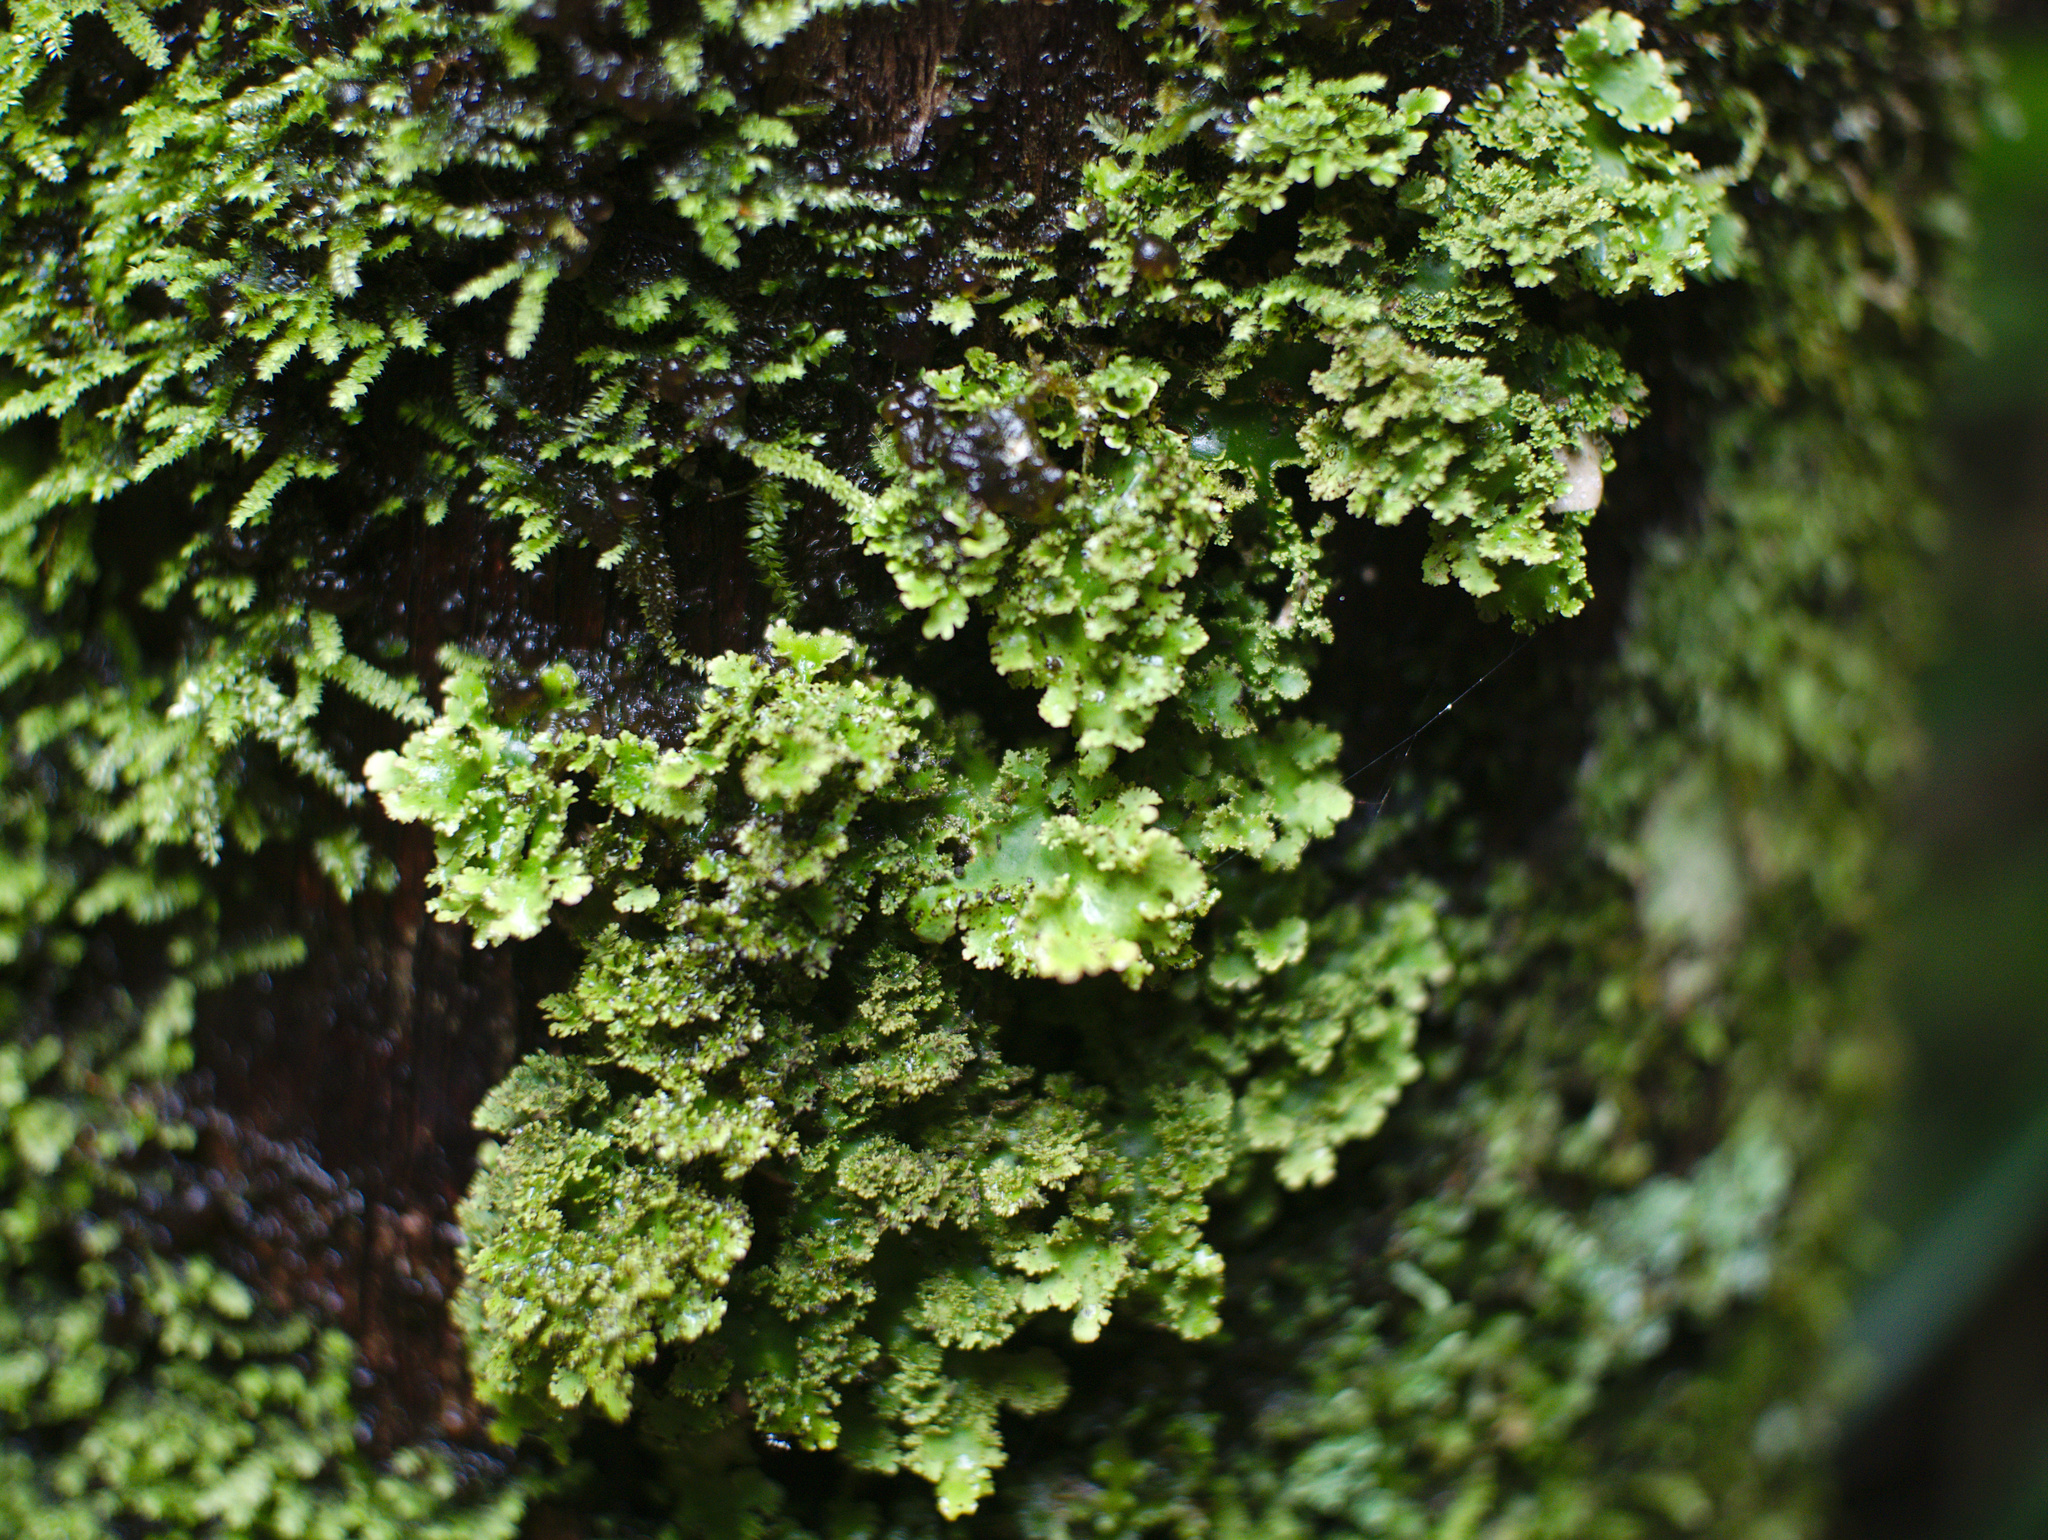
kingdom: Fungi
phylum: Ascomycota
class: Lecanoromycetes
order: Peltigerales
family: Lobariaceae
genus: Sticta
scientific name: Sticta martinii
